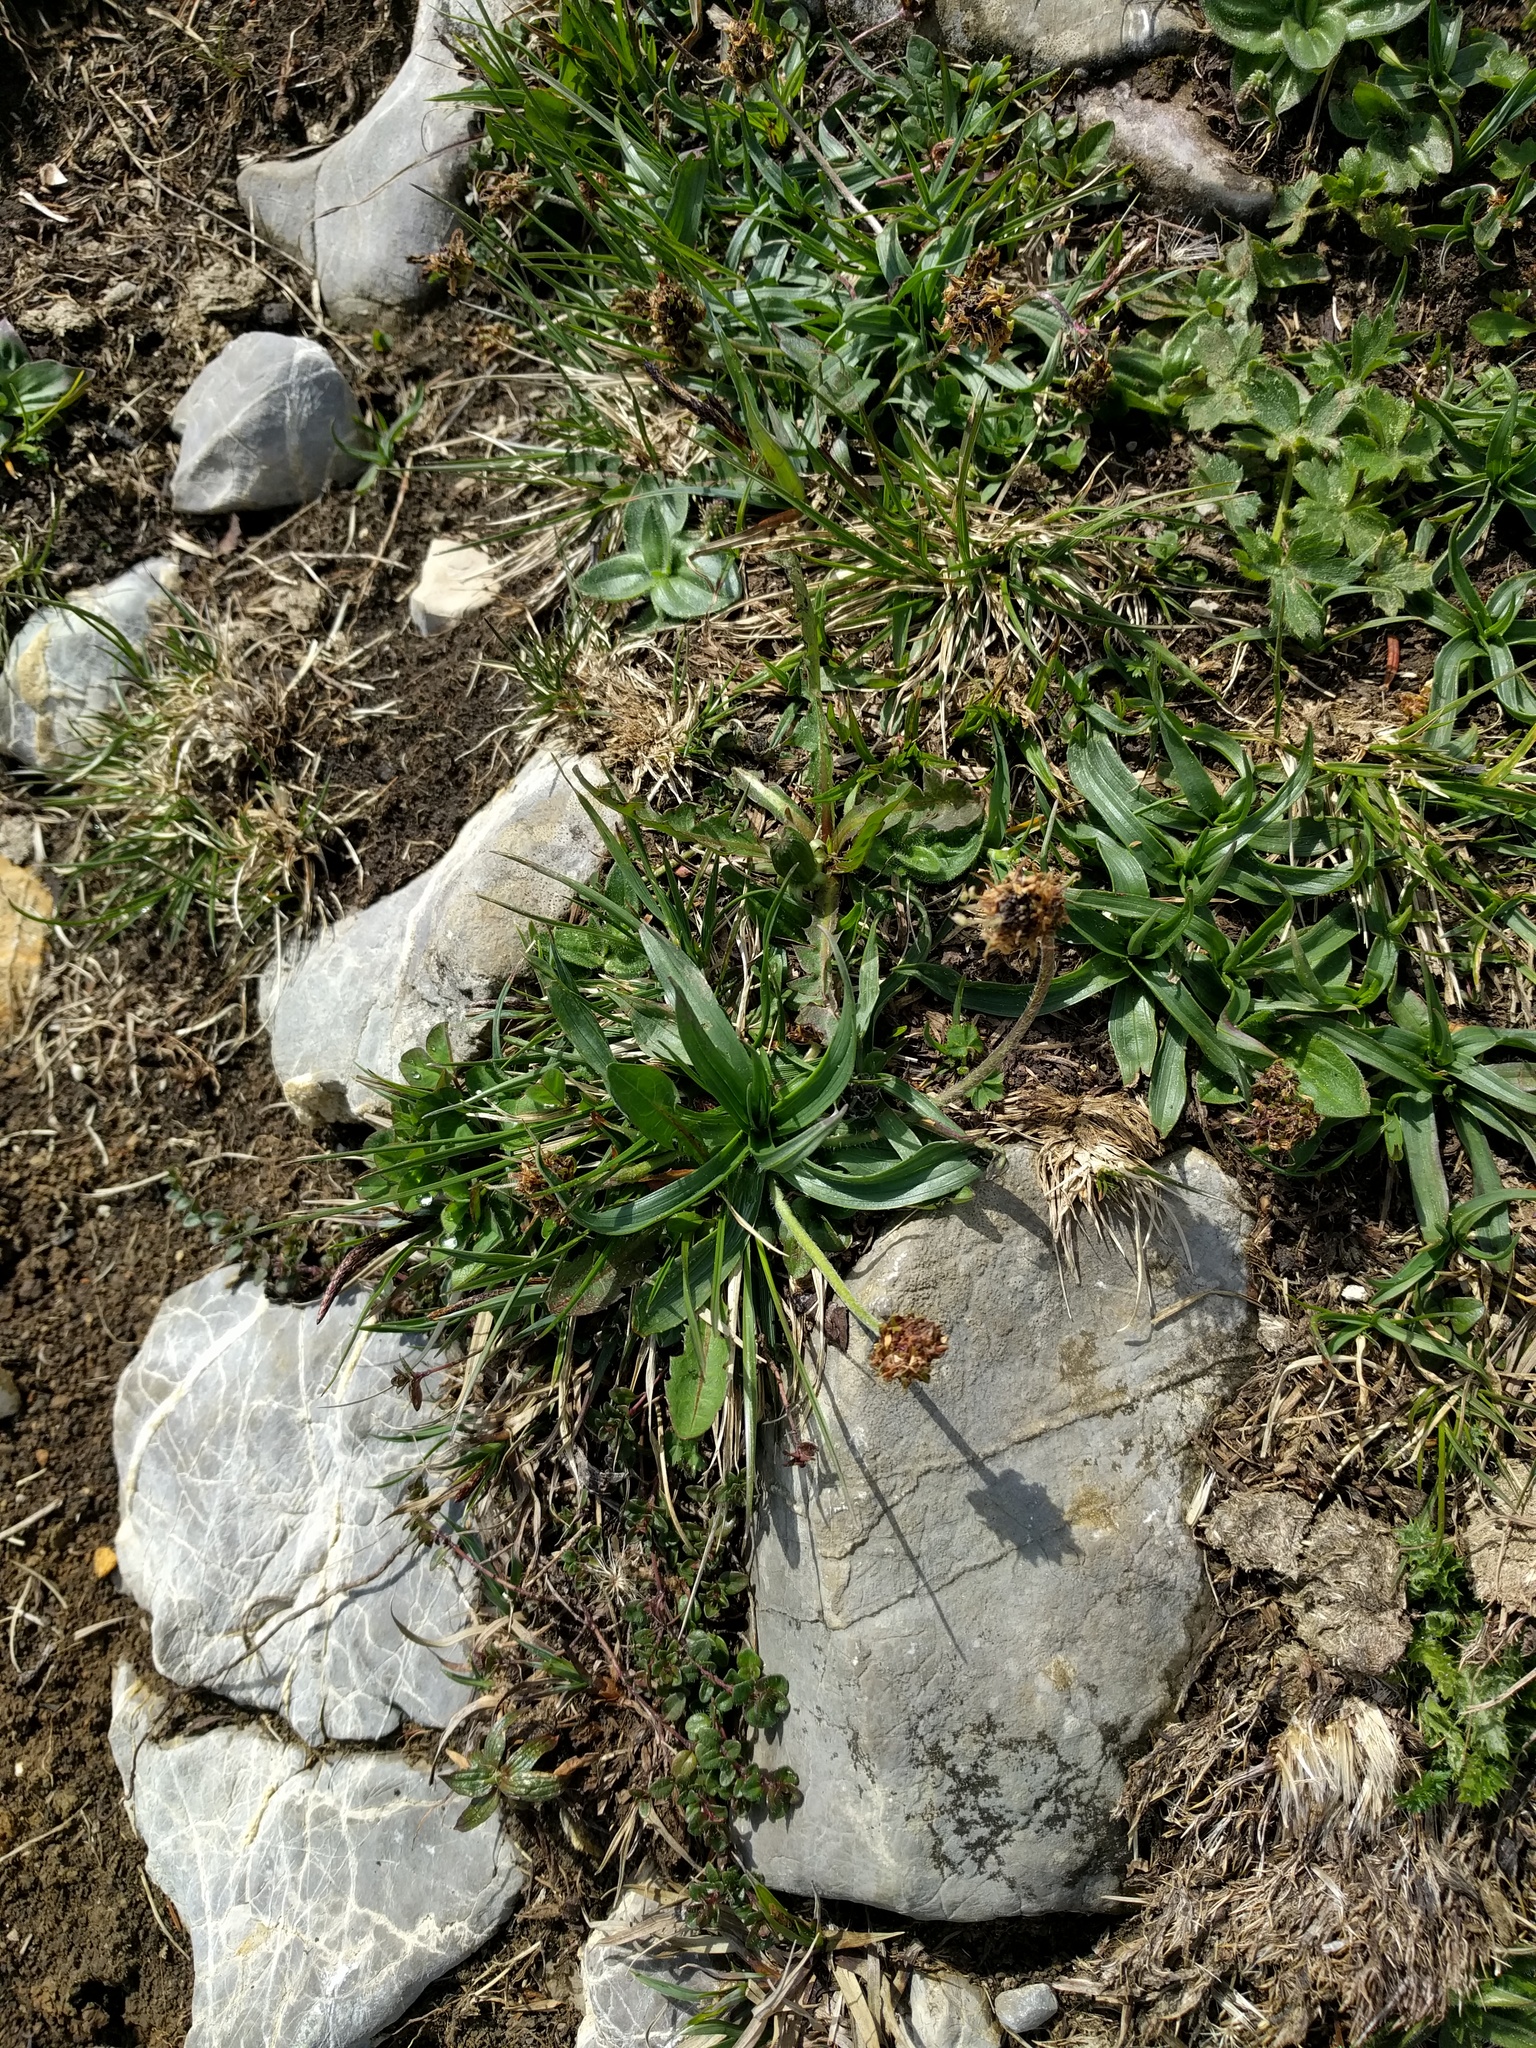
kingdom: Plantae
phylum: Tracheophyta
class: Magnoliopsida
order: Lamiales
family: Plantaginaceae
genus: Plantago
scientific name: Plantago atrata
